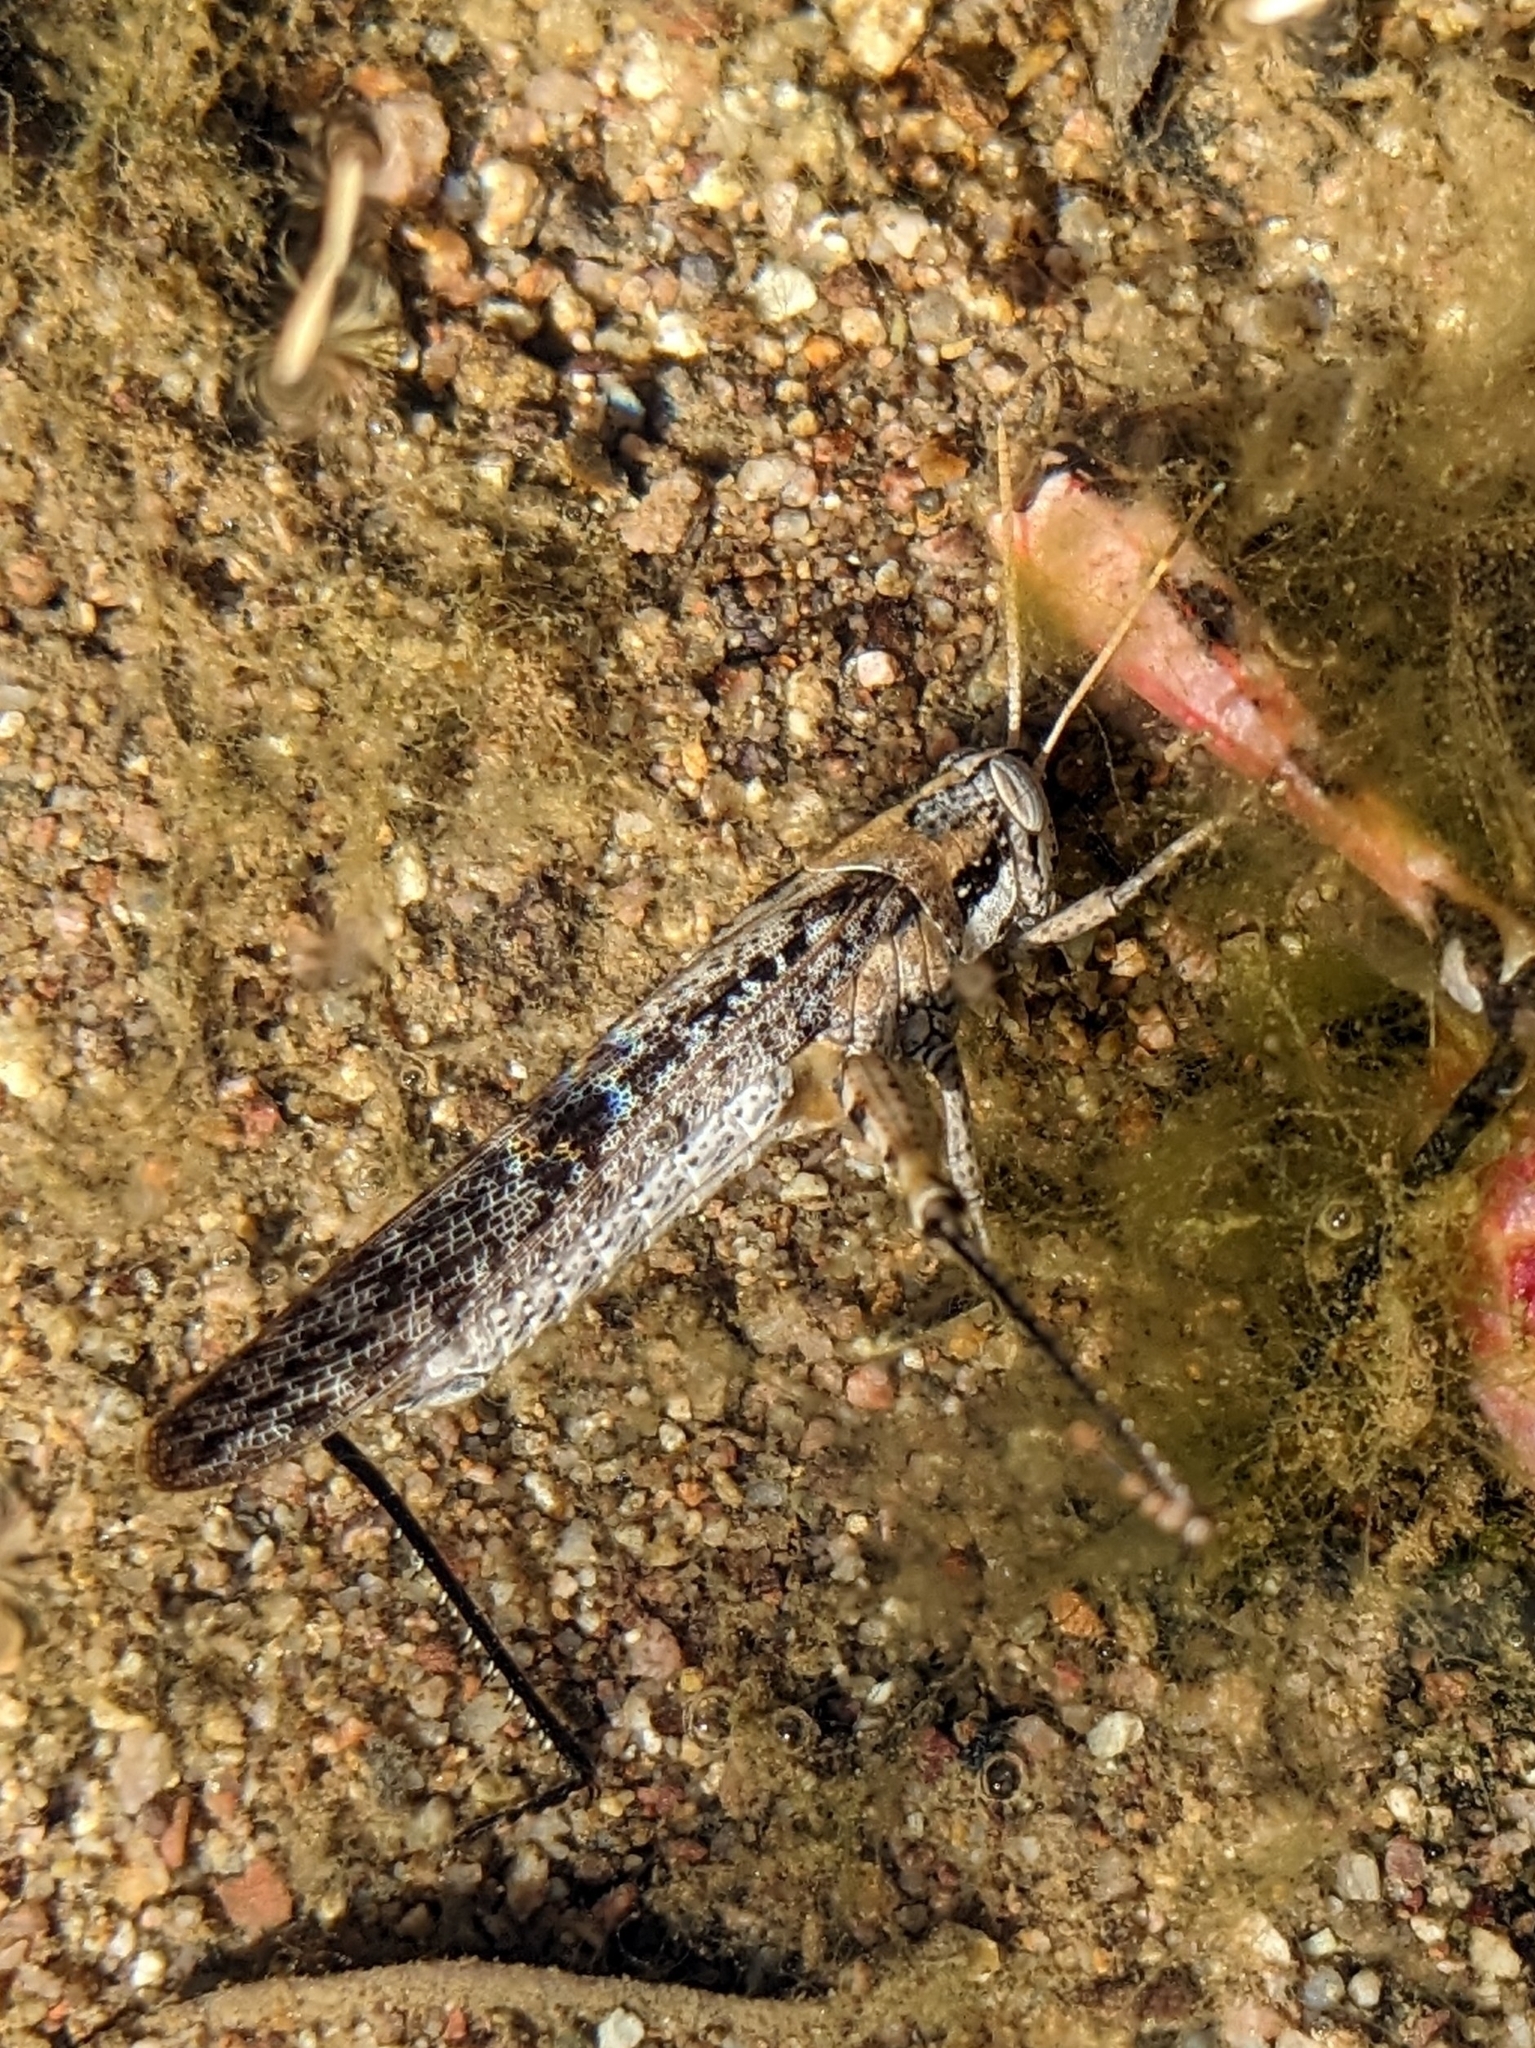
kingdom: Animalia
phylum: Arthropoda
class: Insecta
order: Orthoptera
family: Acrididae
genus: Schistocerca
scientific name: Schistocerca nitens
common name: Vagrant grasshopper
